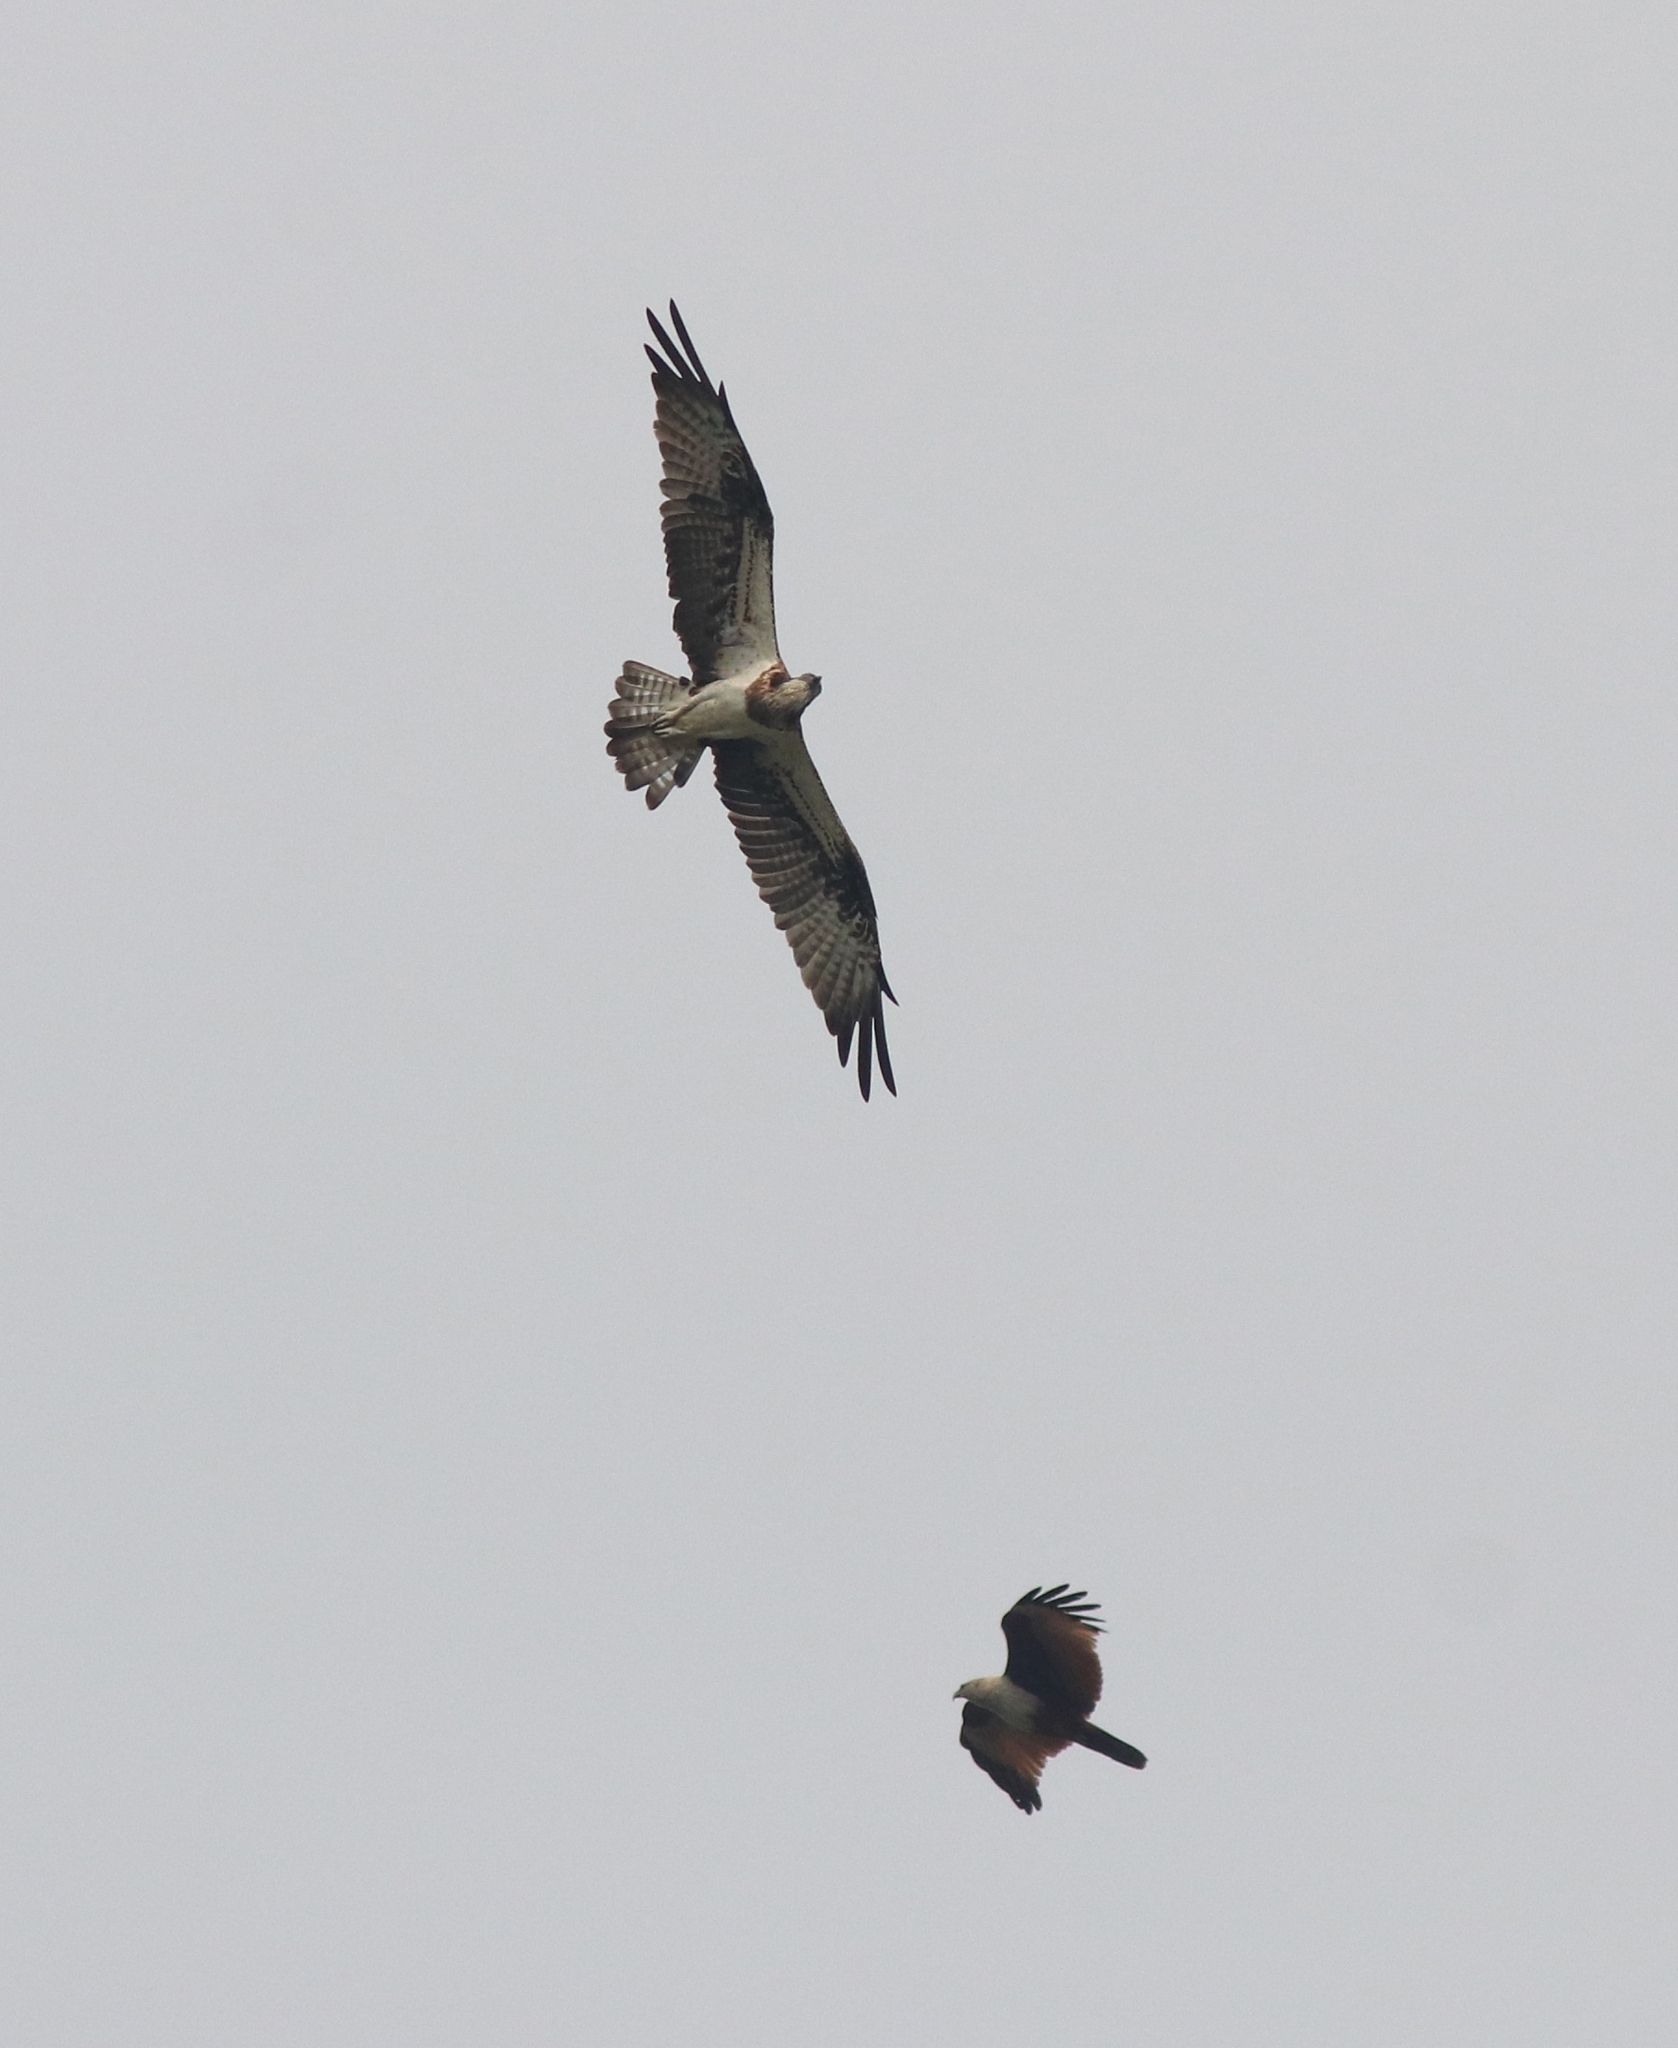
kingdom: Animalia
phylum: Chordata
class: Aves
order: Accipitriformes
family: Accipitridae
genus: Haliastur
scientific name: Haliastur indus
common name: Brahminy kite
